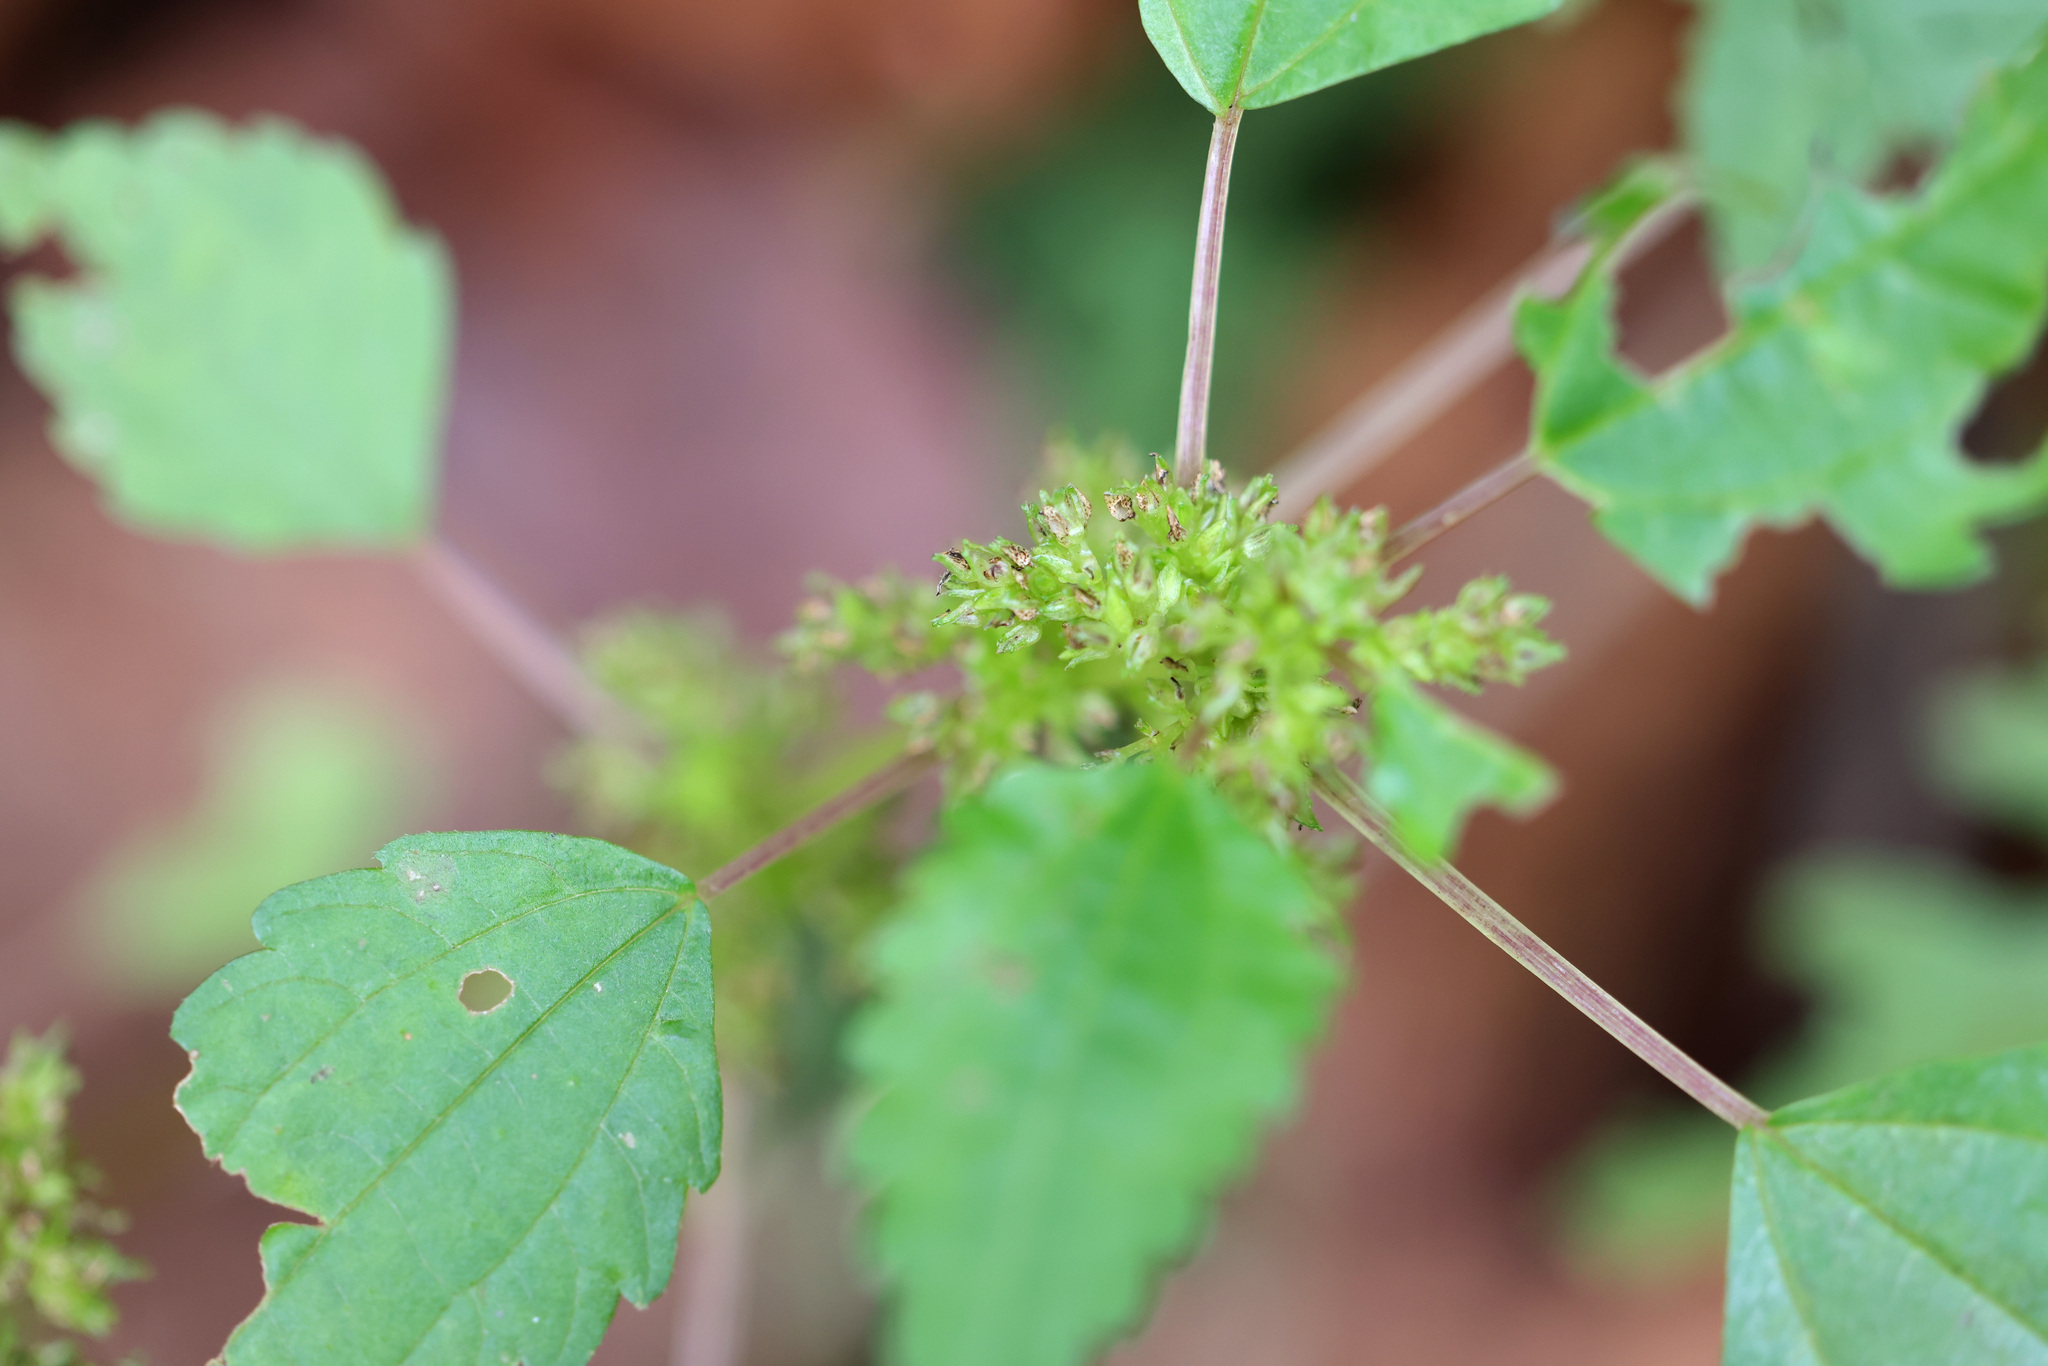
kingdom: Plantae
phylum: Tracheophyta
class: Magnoliopsida
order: Rosales
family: Urticaceae
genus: Pilea
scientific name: Pilea pumila
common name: Clearweed
